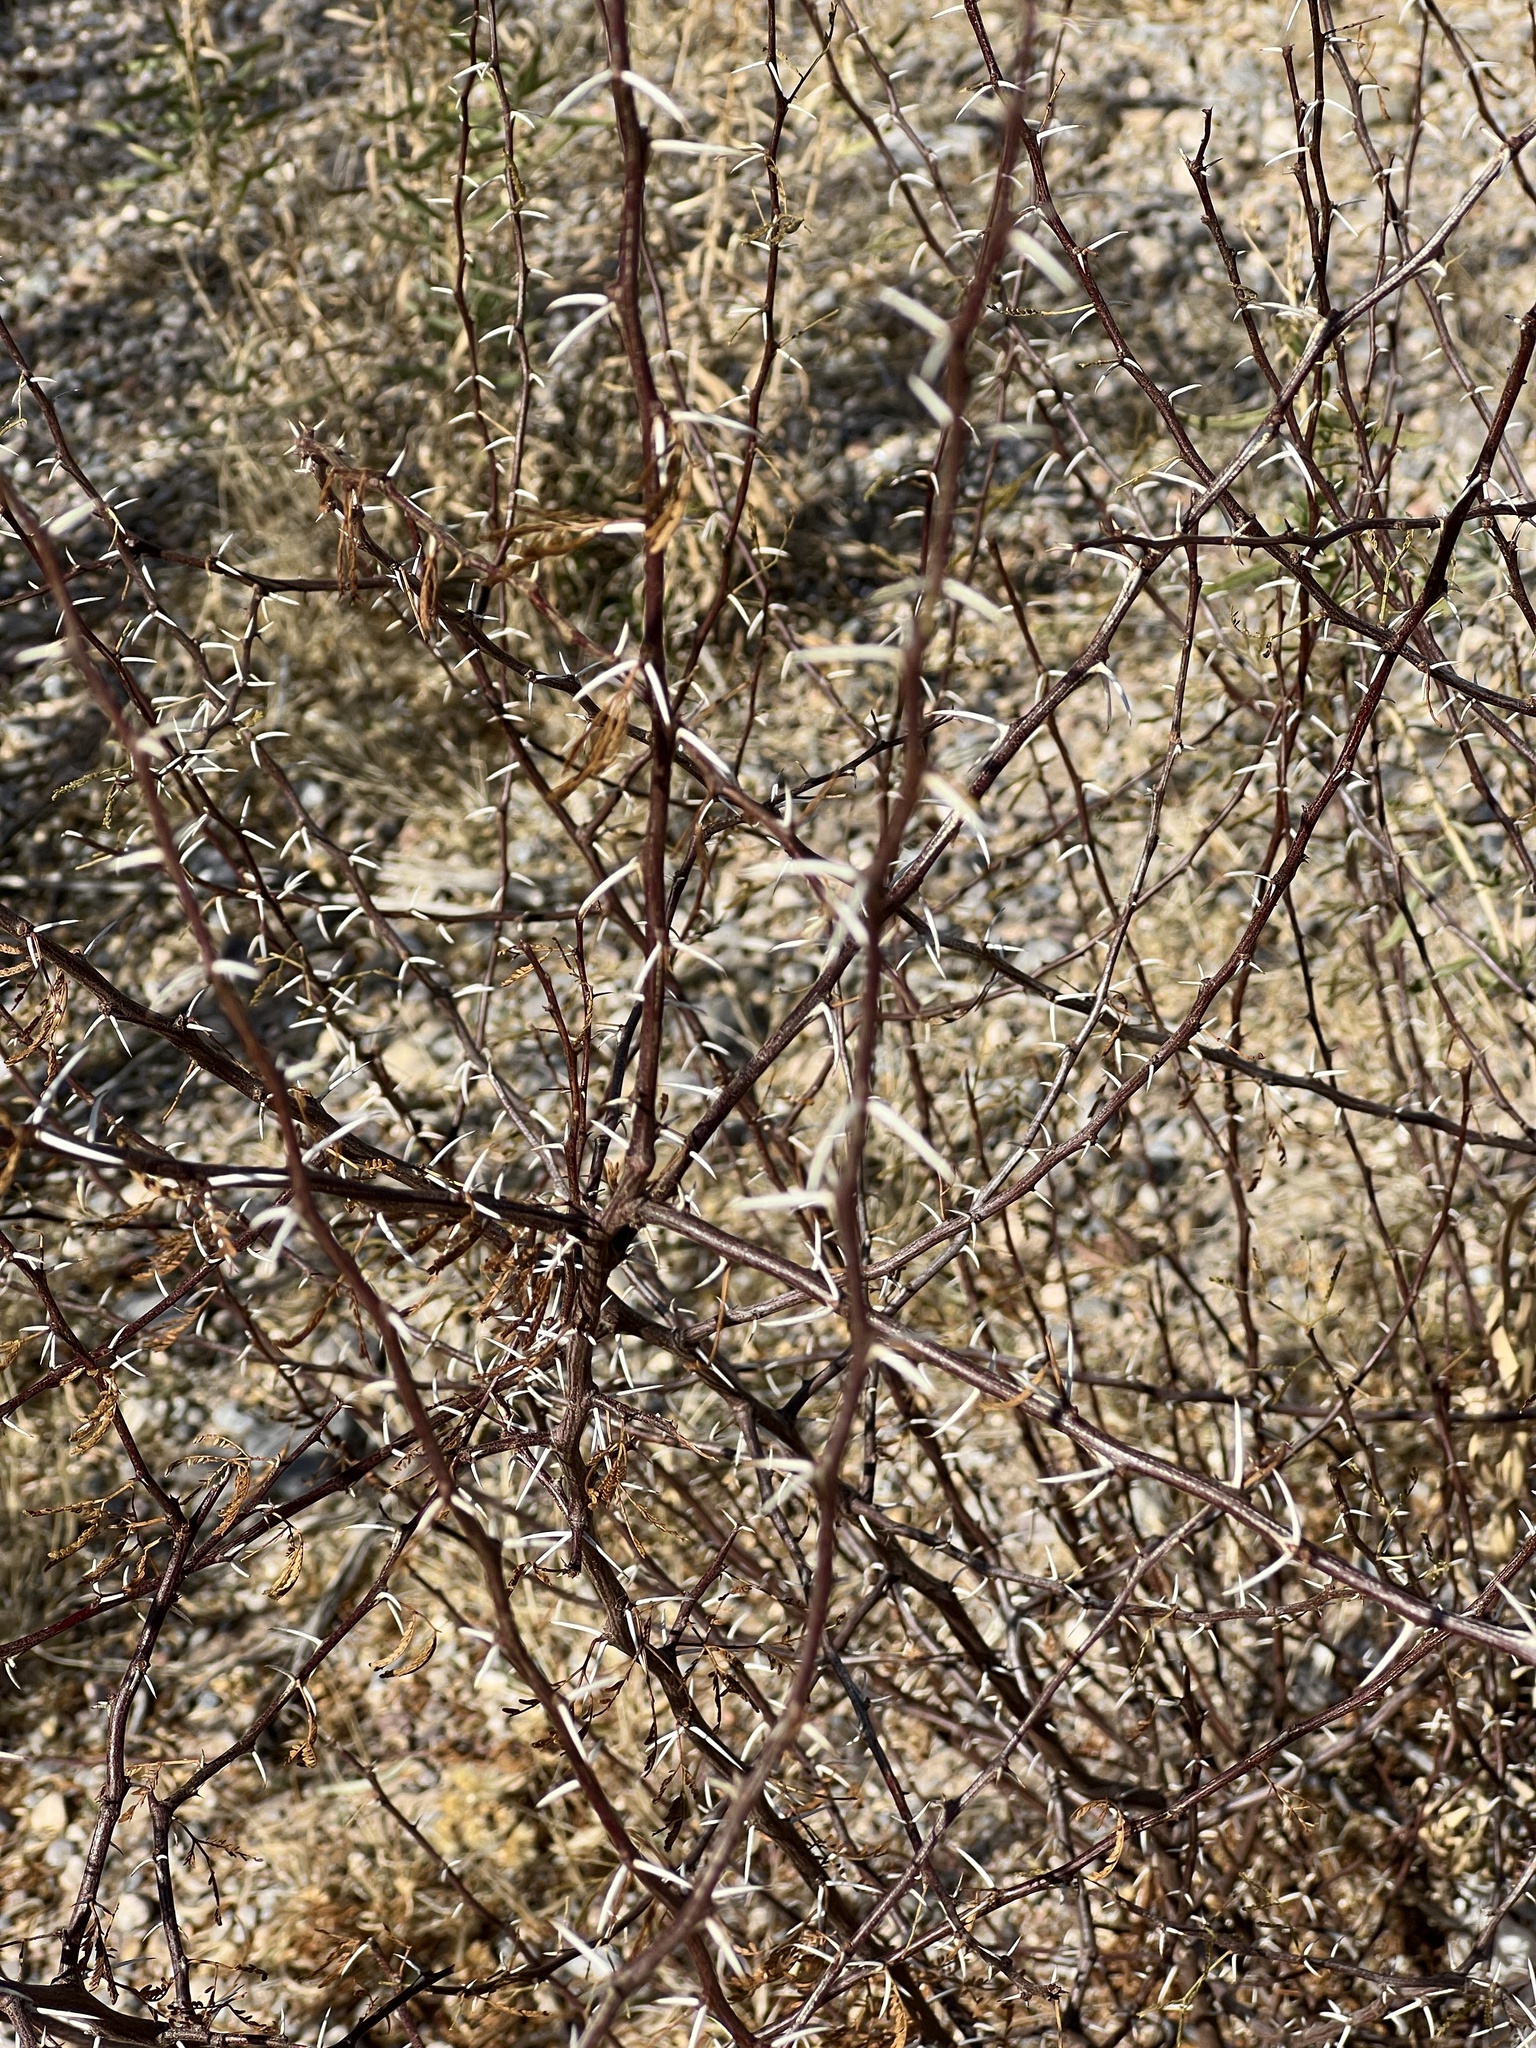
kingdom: Plantae
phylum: Tracheophyta
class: Magnoliopsida
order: Fabales
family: Fabaceae
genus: Vachellia
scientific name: Vachellia vernicosa
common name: Viscid acacia
